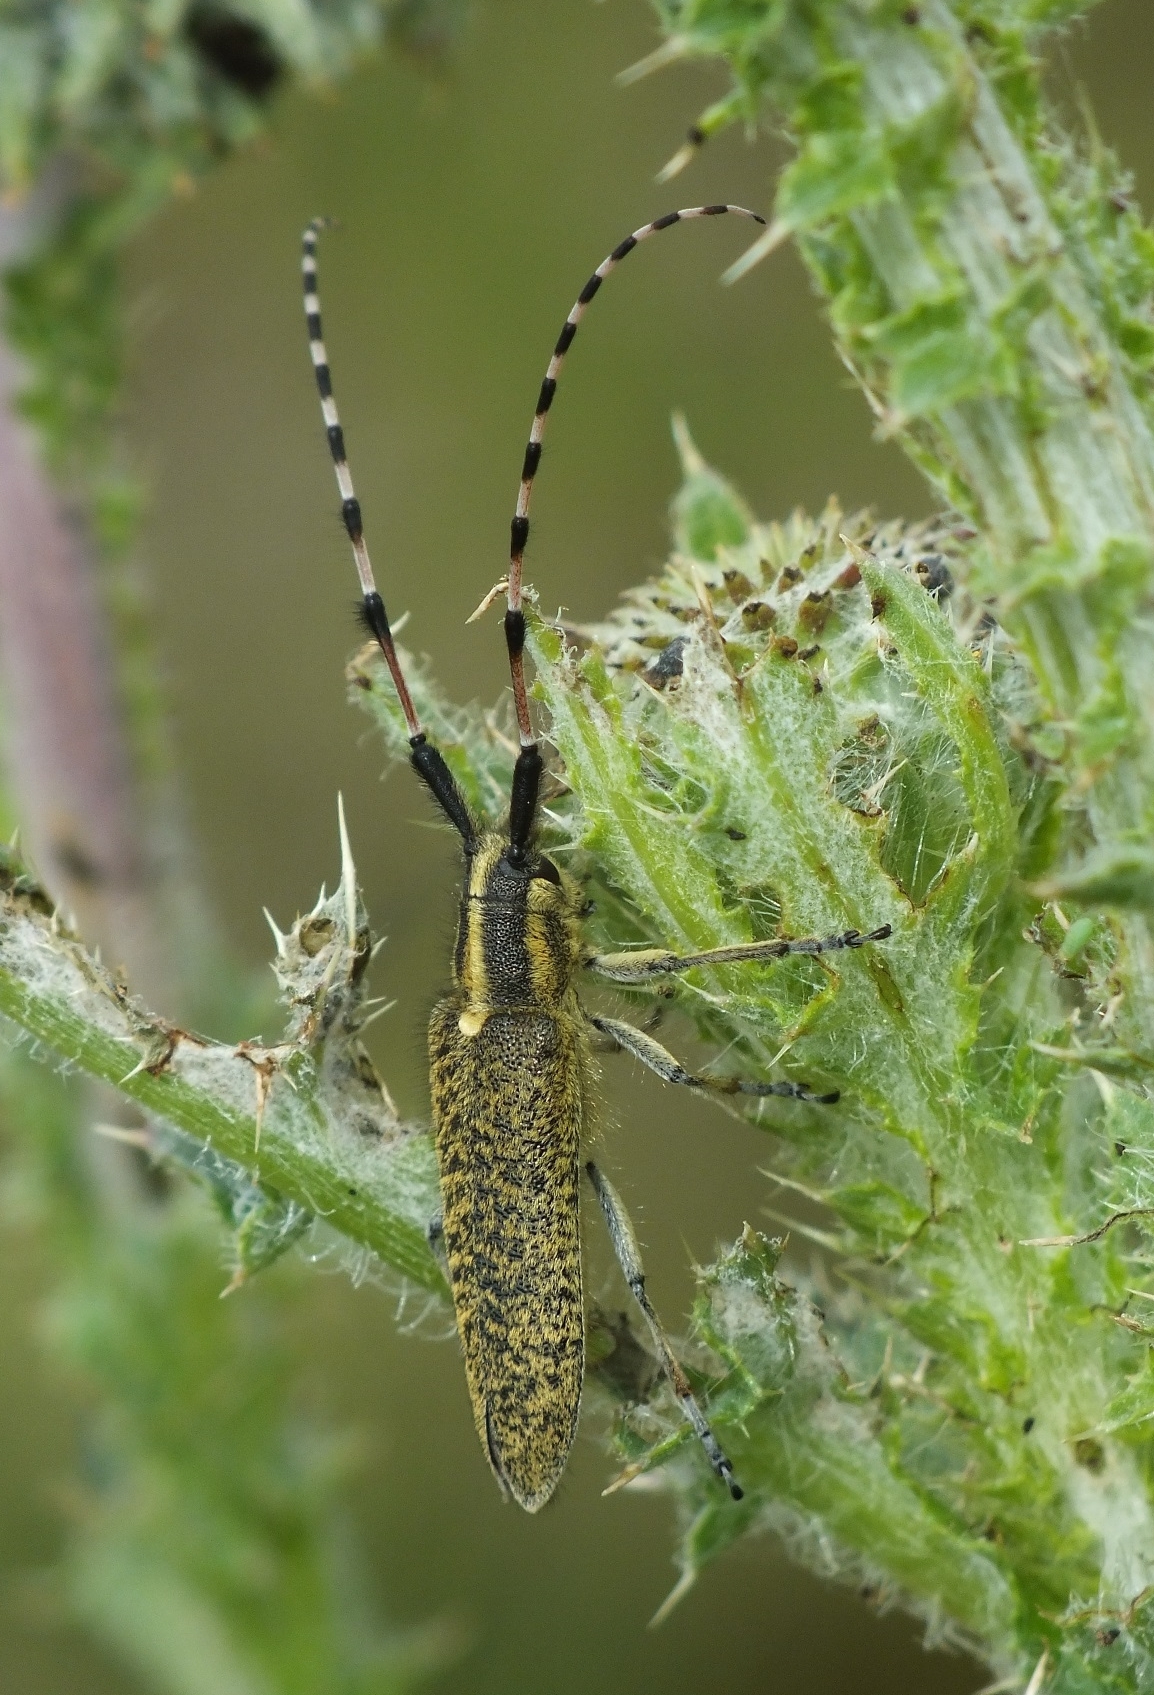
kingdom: Animalia
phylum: Arthropoda
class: Insecta
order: Coleoptera
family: Cerambycidae
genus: Agapanthia
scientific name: Agapanthia dahlii
